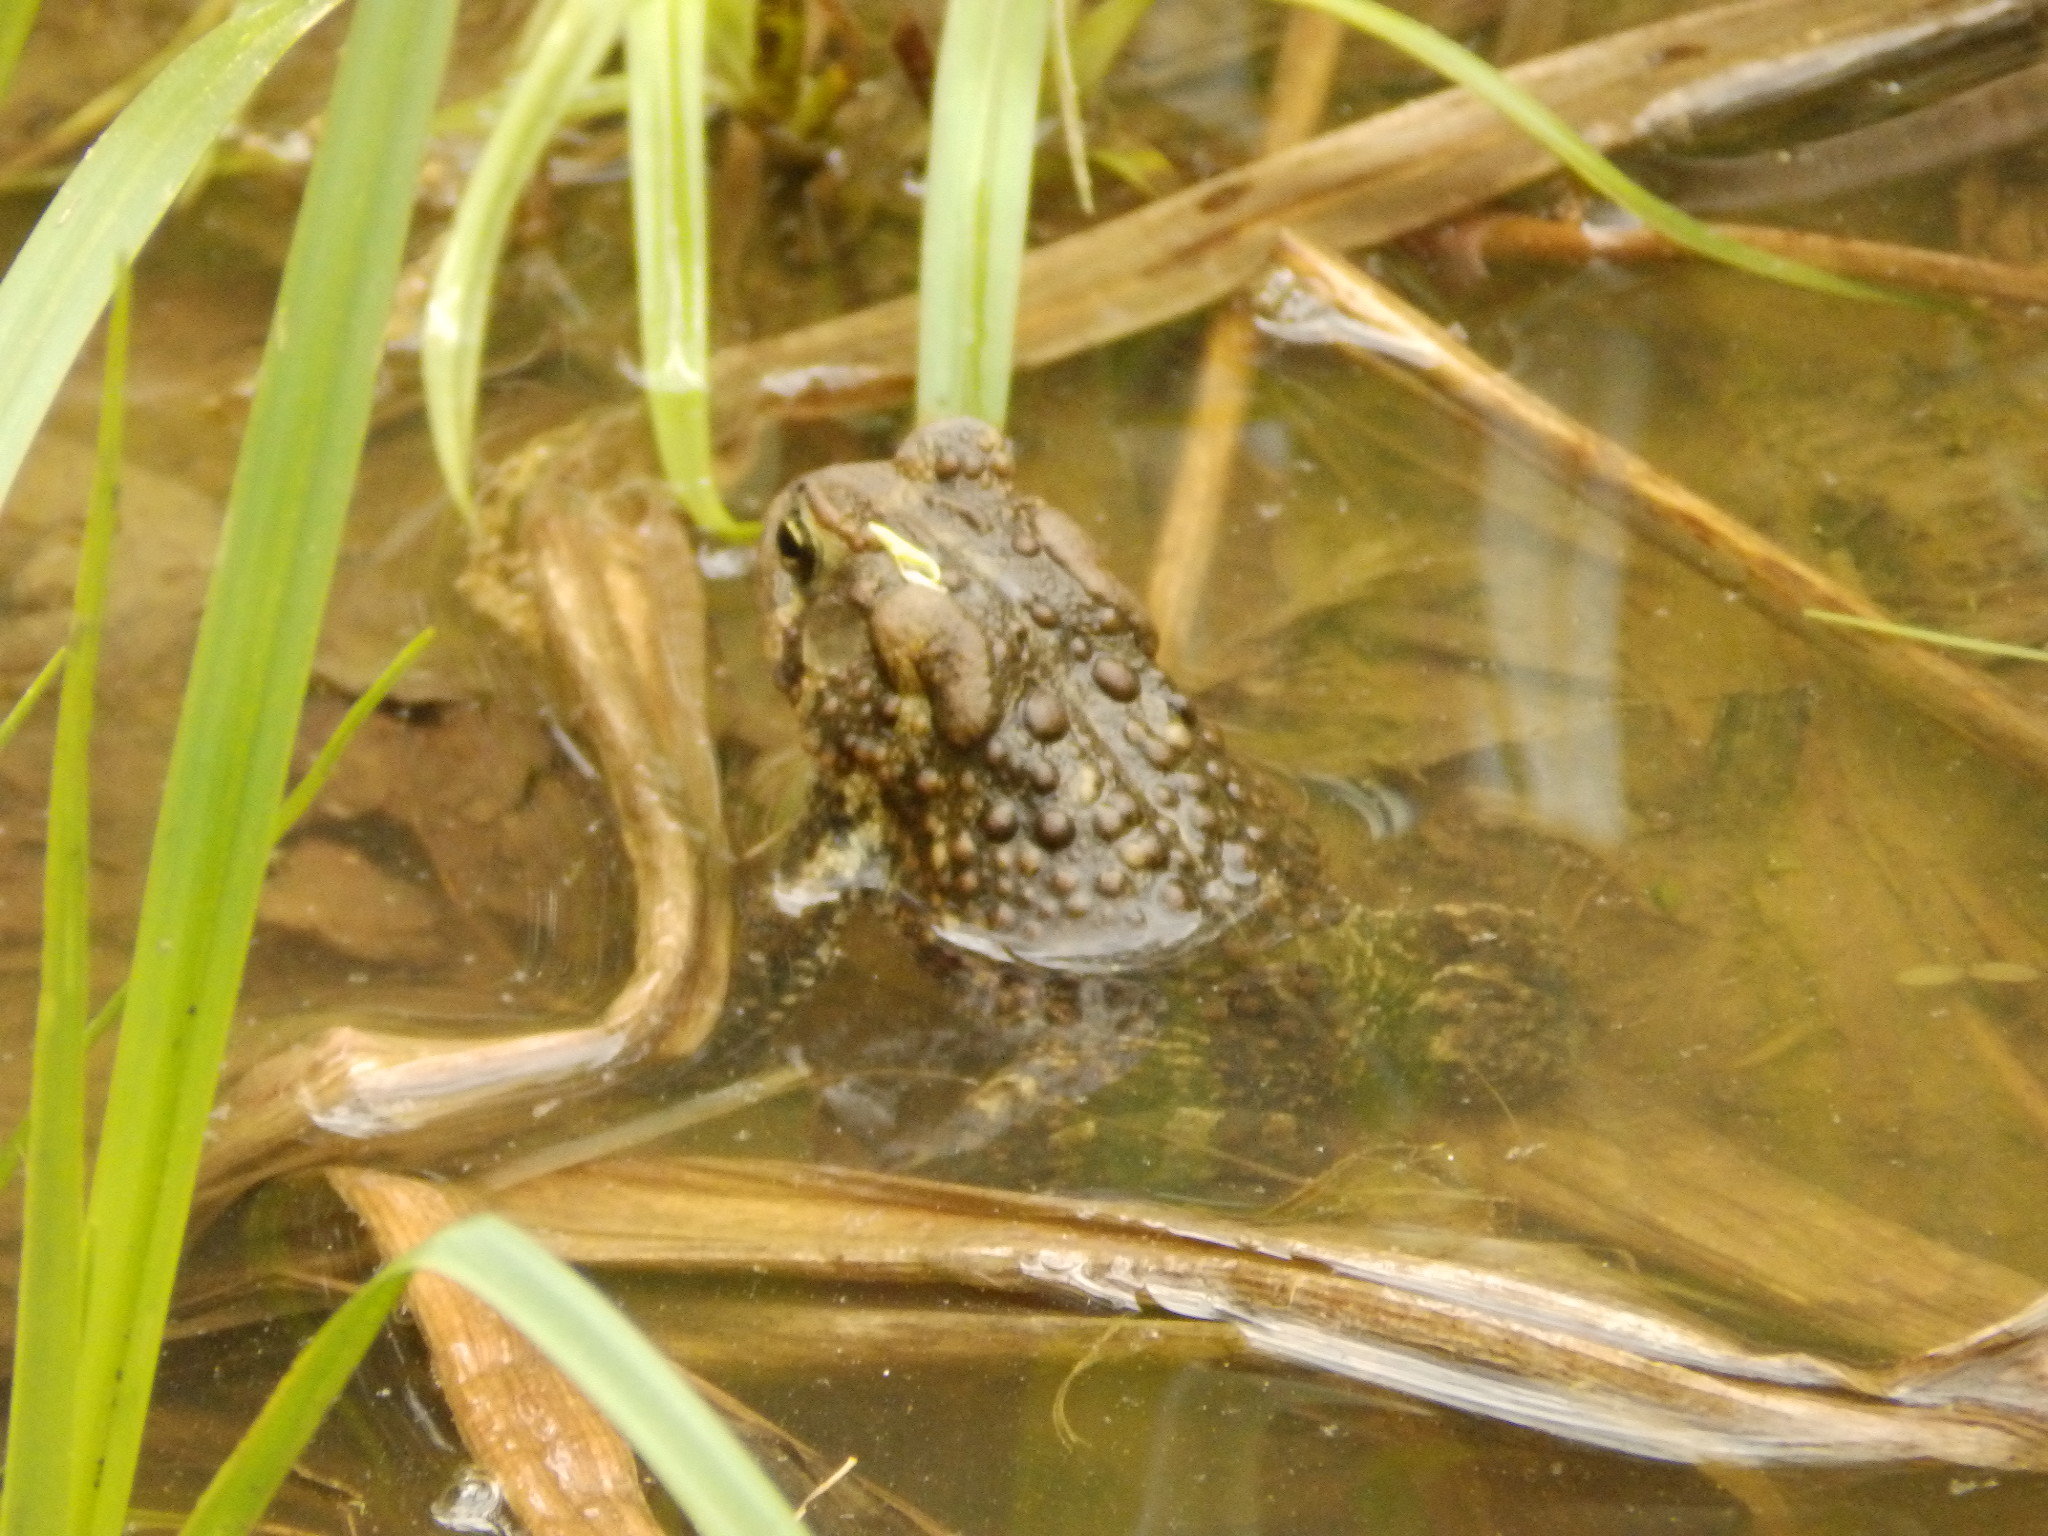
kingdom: Animalia
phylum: Chordata
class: Amphibia
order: Anura
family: Bufonidae
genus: Anaxyrus
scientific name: Anaxyrus americanus
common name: American toad
